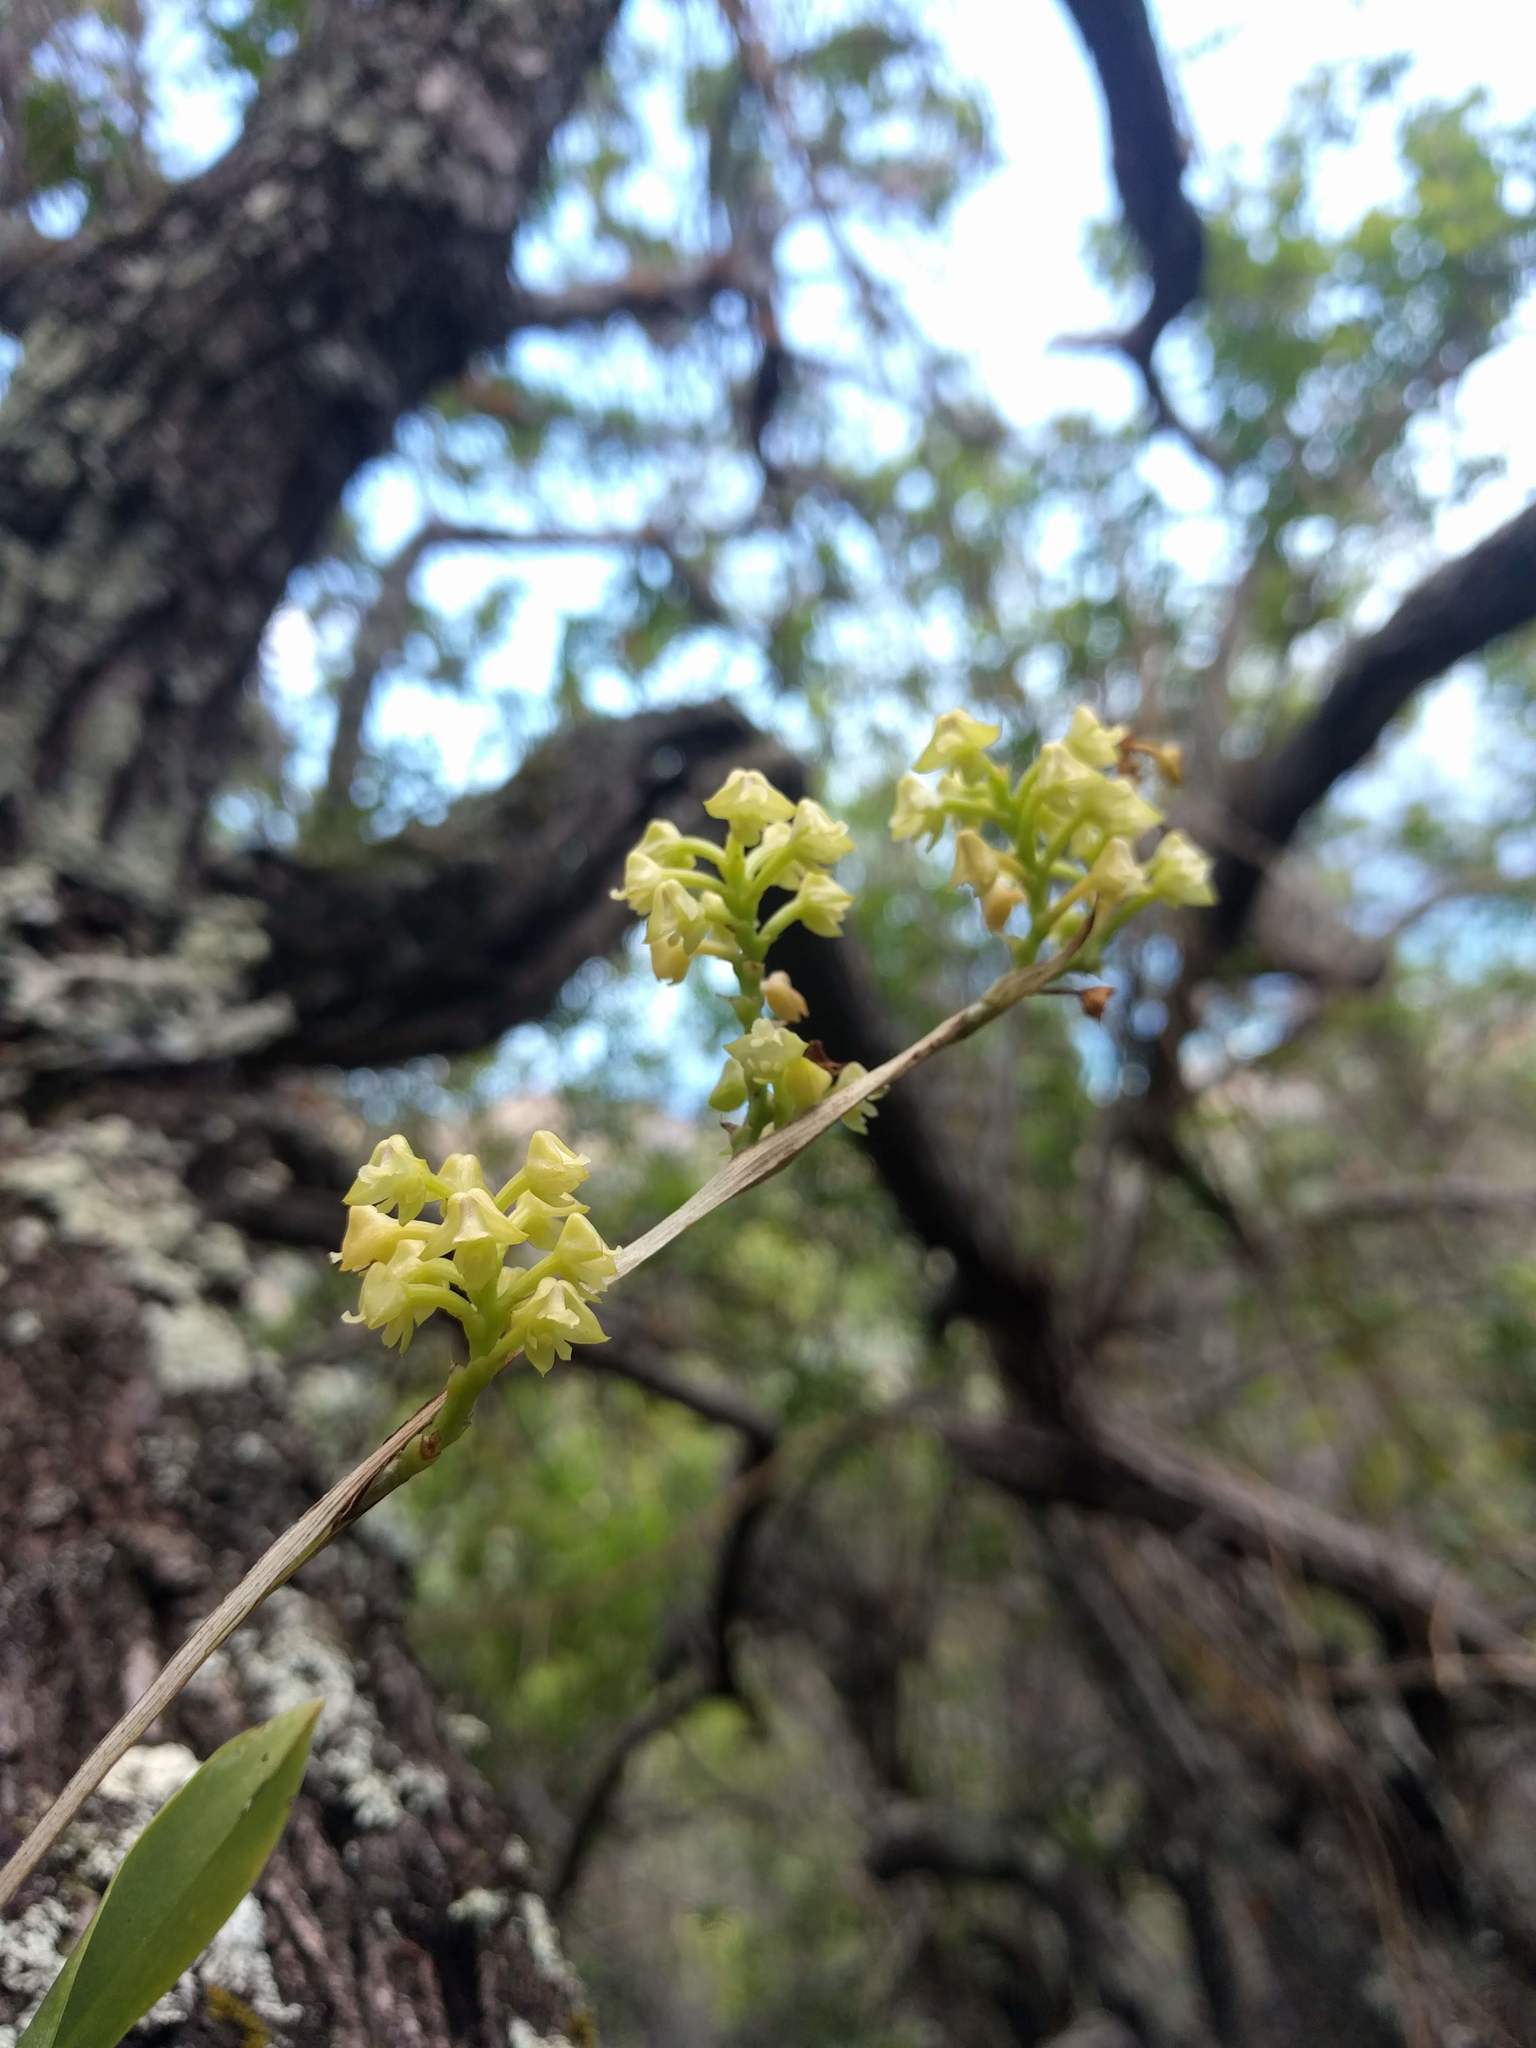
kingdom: Plantae
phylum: Tracheophyta
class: Liliopsida
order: Asparagales
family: Orchidaceae
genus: Polystachya
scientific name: Polystachya concreta
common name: Greater yellowspike orchid
